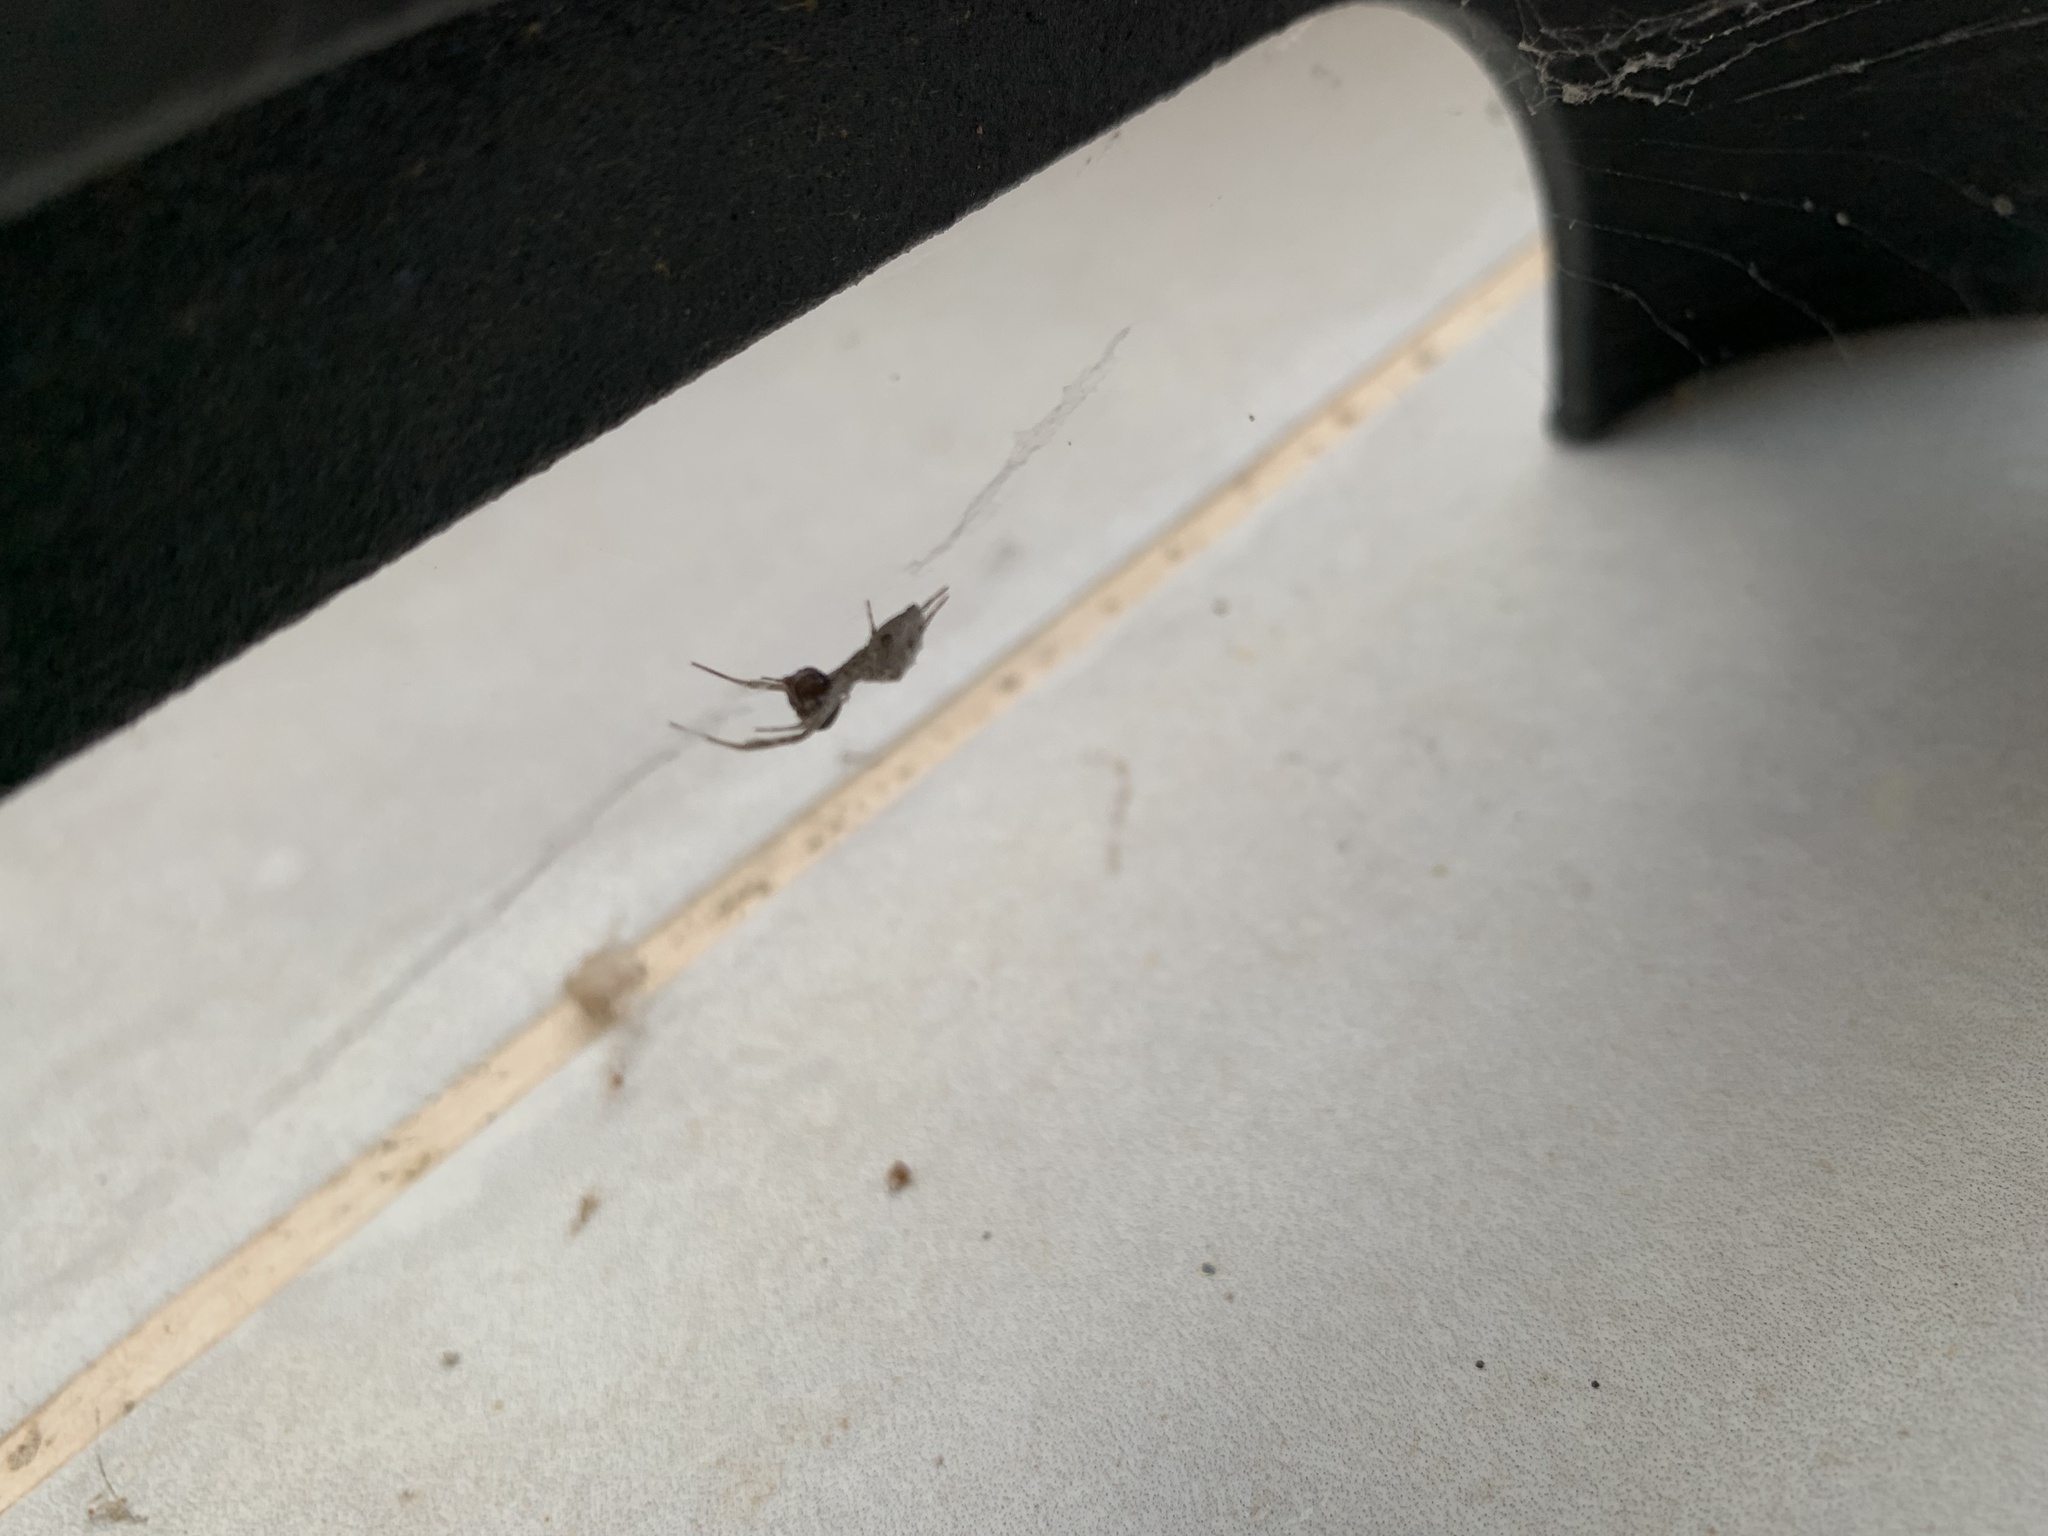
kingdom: Animalia
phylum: Arthropoda
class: Arachnida
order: Araneae
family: Uloboridae
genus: Uloborus
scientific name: Uloborus walckenaerius
